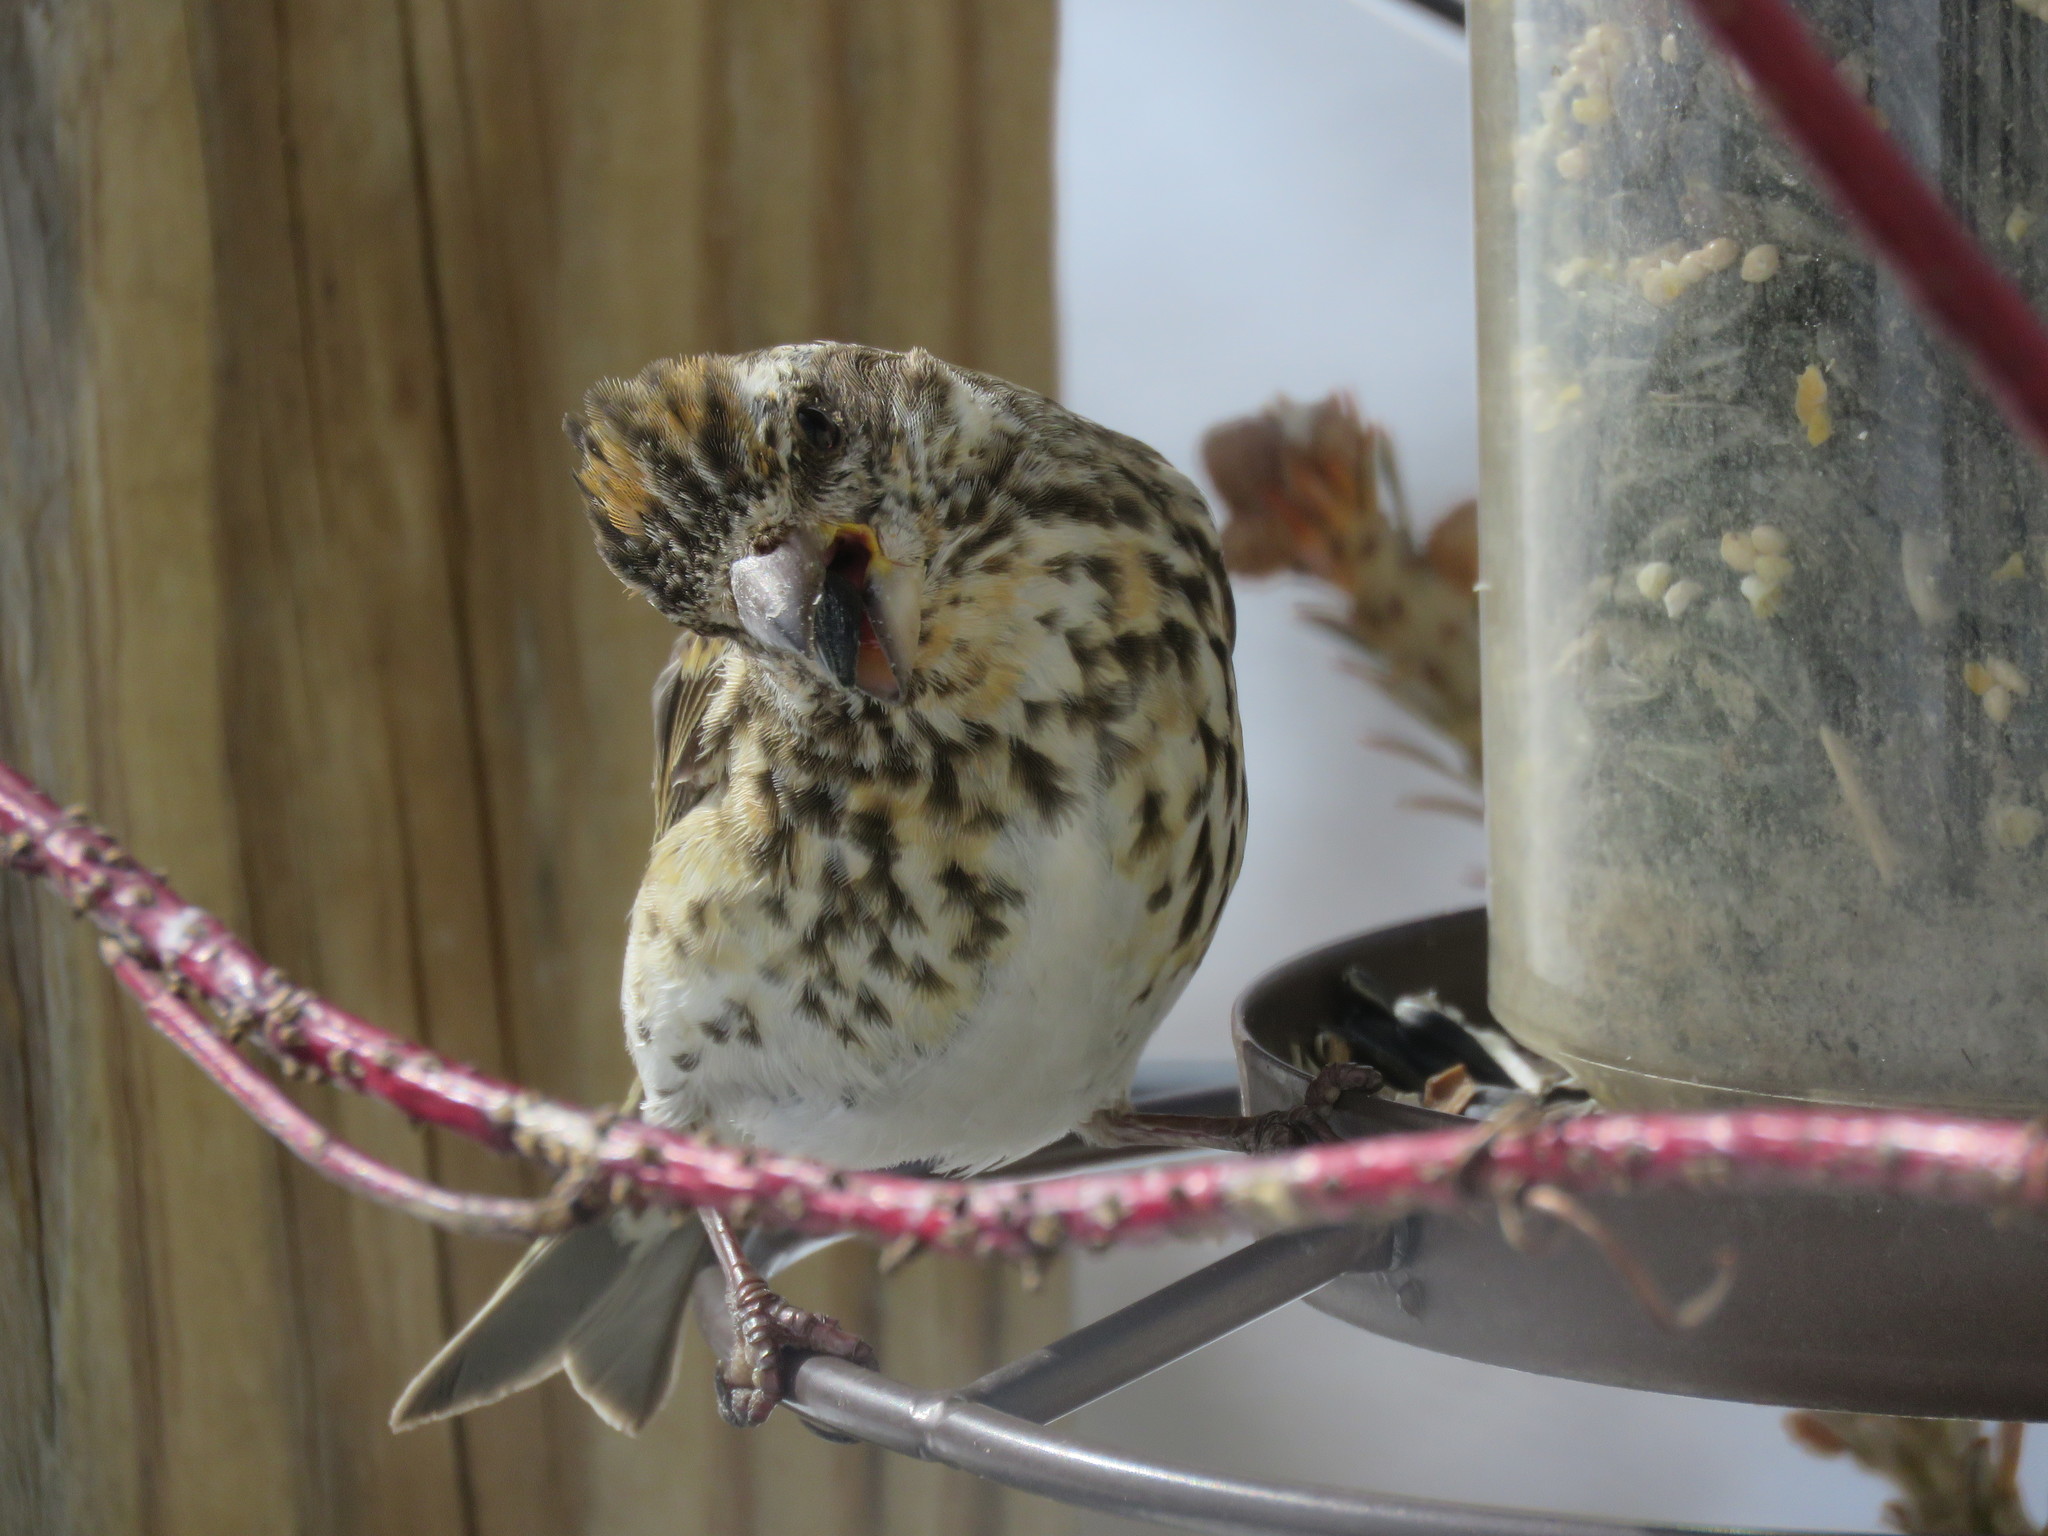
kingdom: Animalia
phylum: Chordata
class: Aves
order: Passeriformes
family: Fringillidae
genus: Haemorhous
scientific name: Haemorhous purpureus
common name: Purple finch
